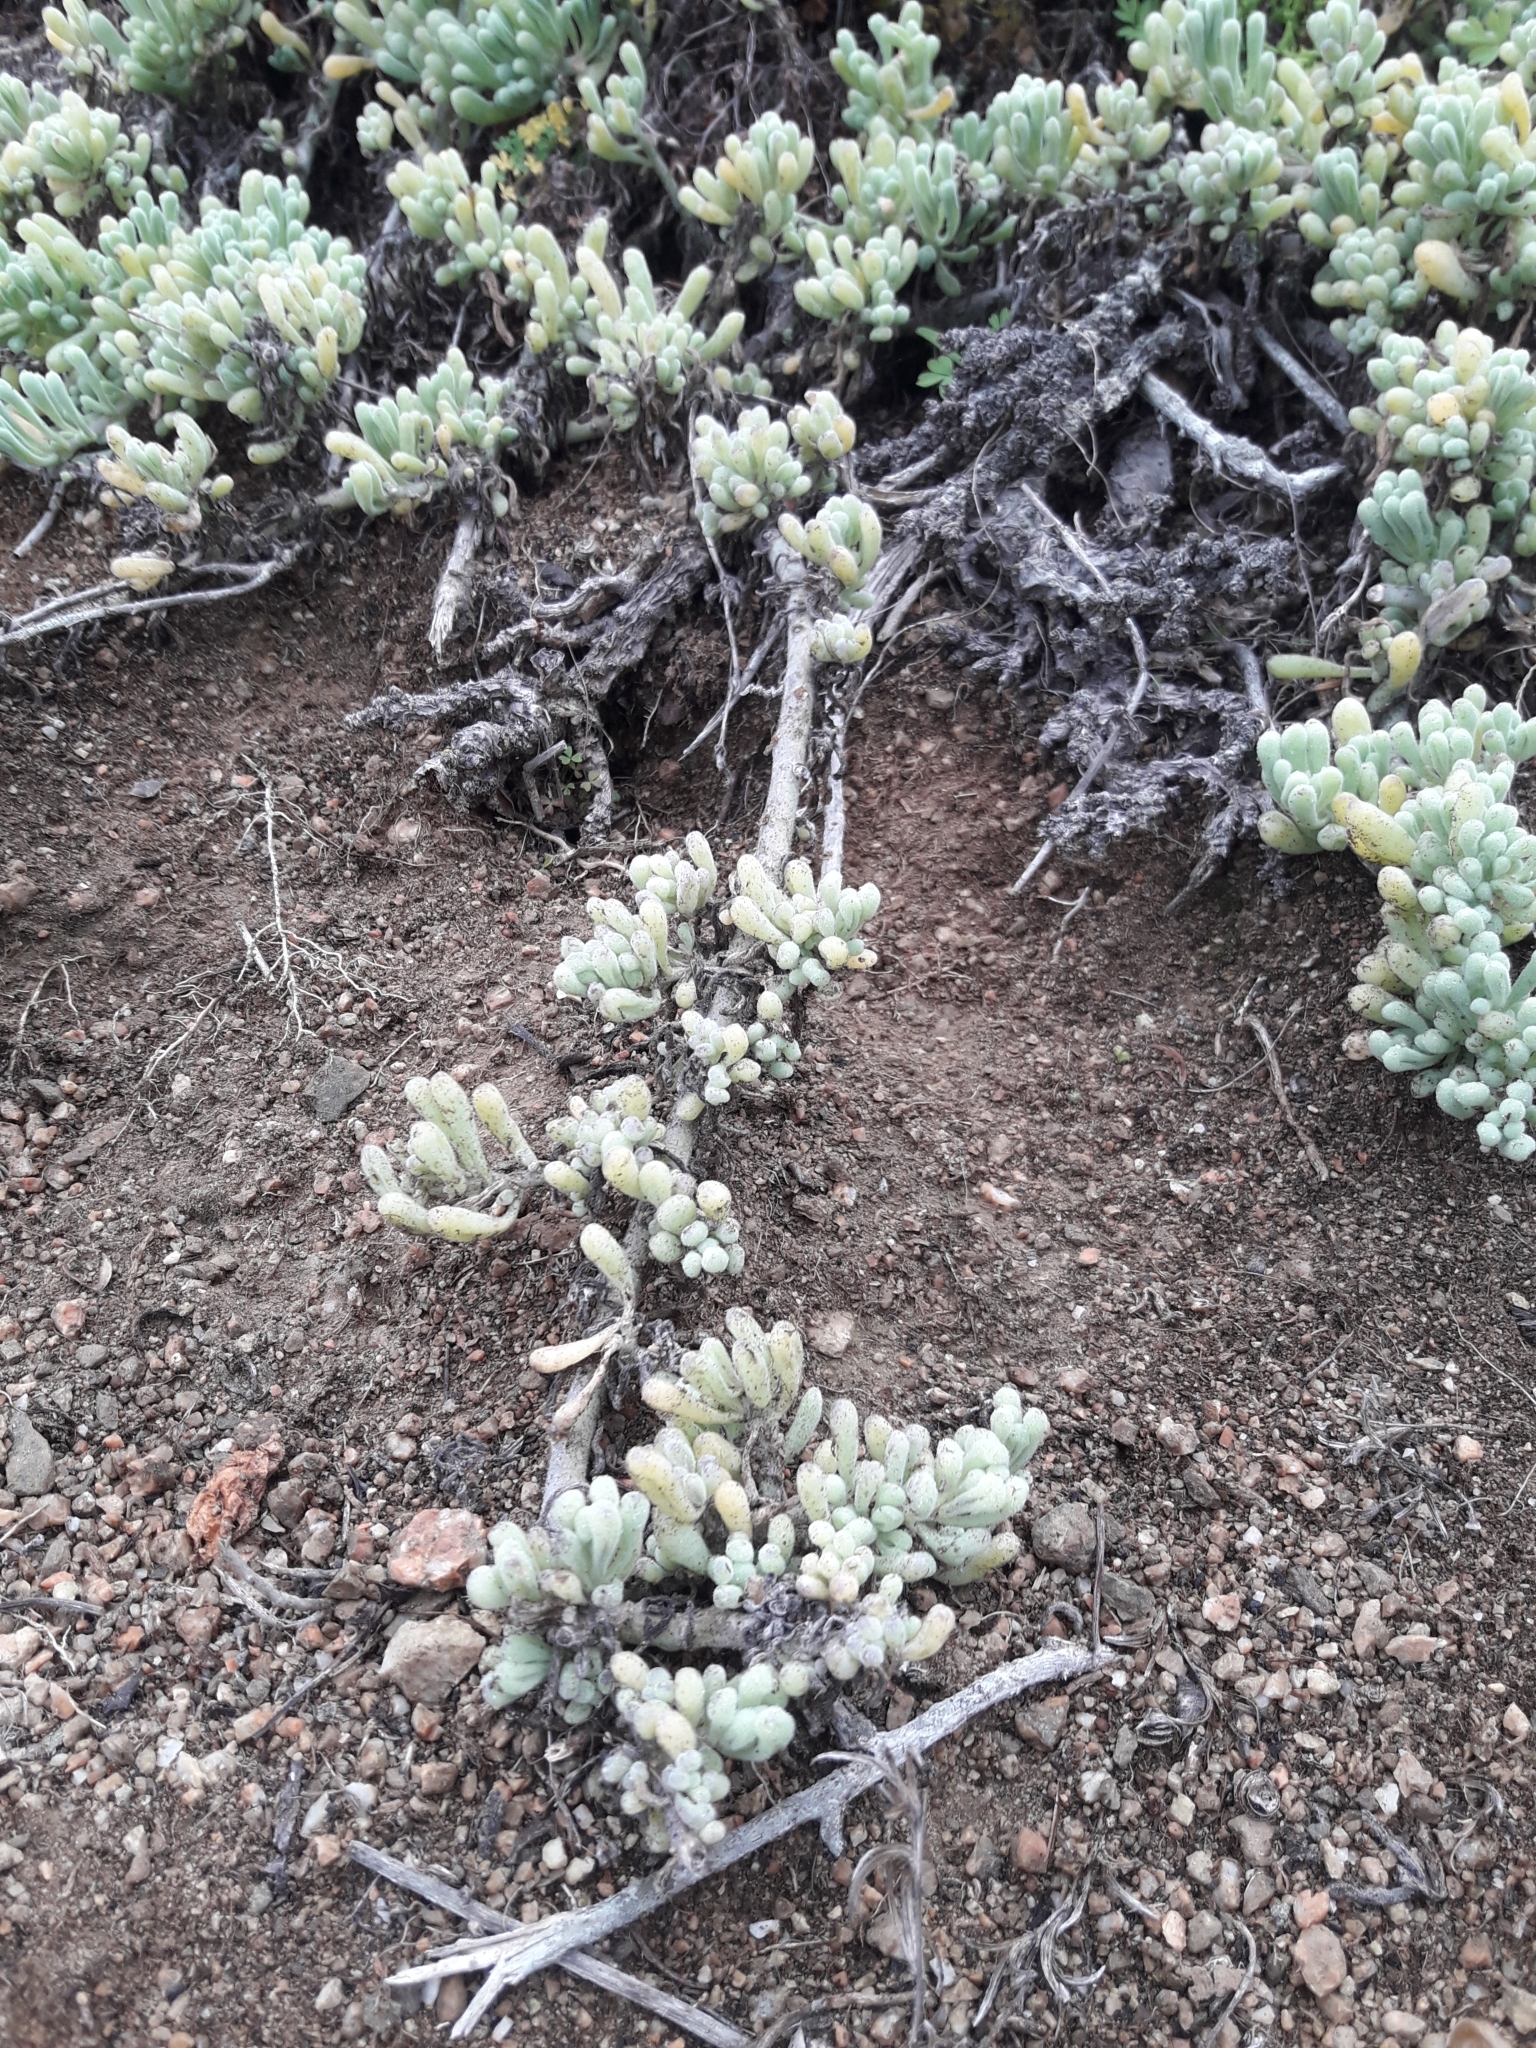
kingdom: Plantae
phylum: Tracheophyta
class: Magnoliopsida
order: Solanales
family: Solanaceae
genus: Nolana
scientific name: Nolana crassulifolia
